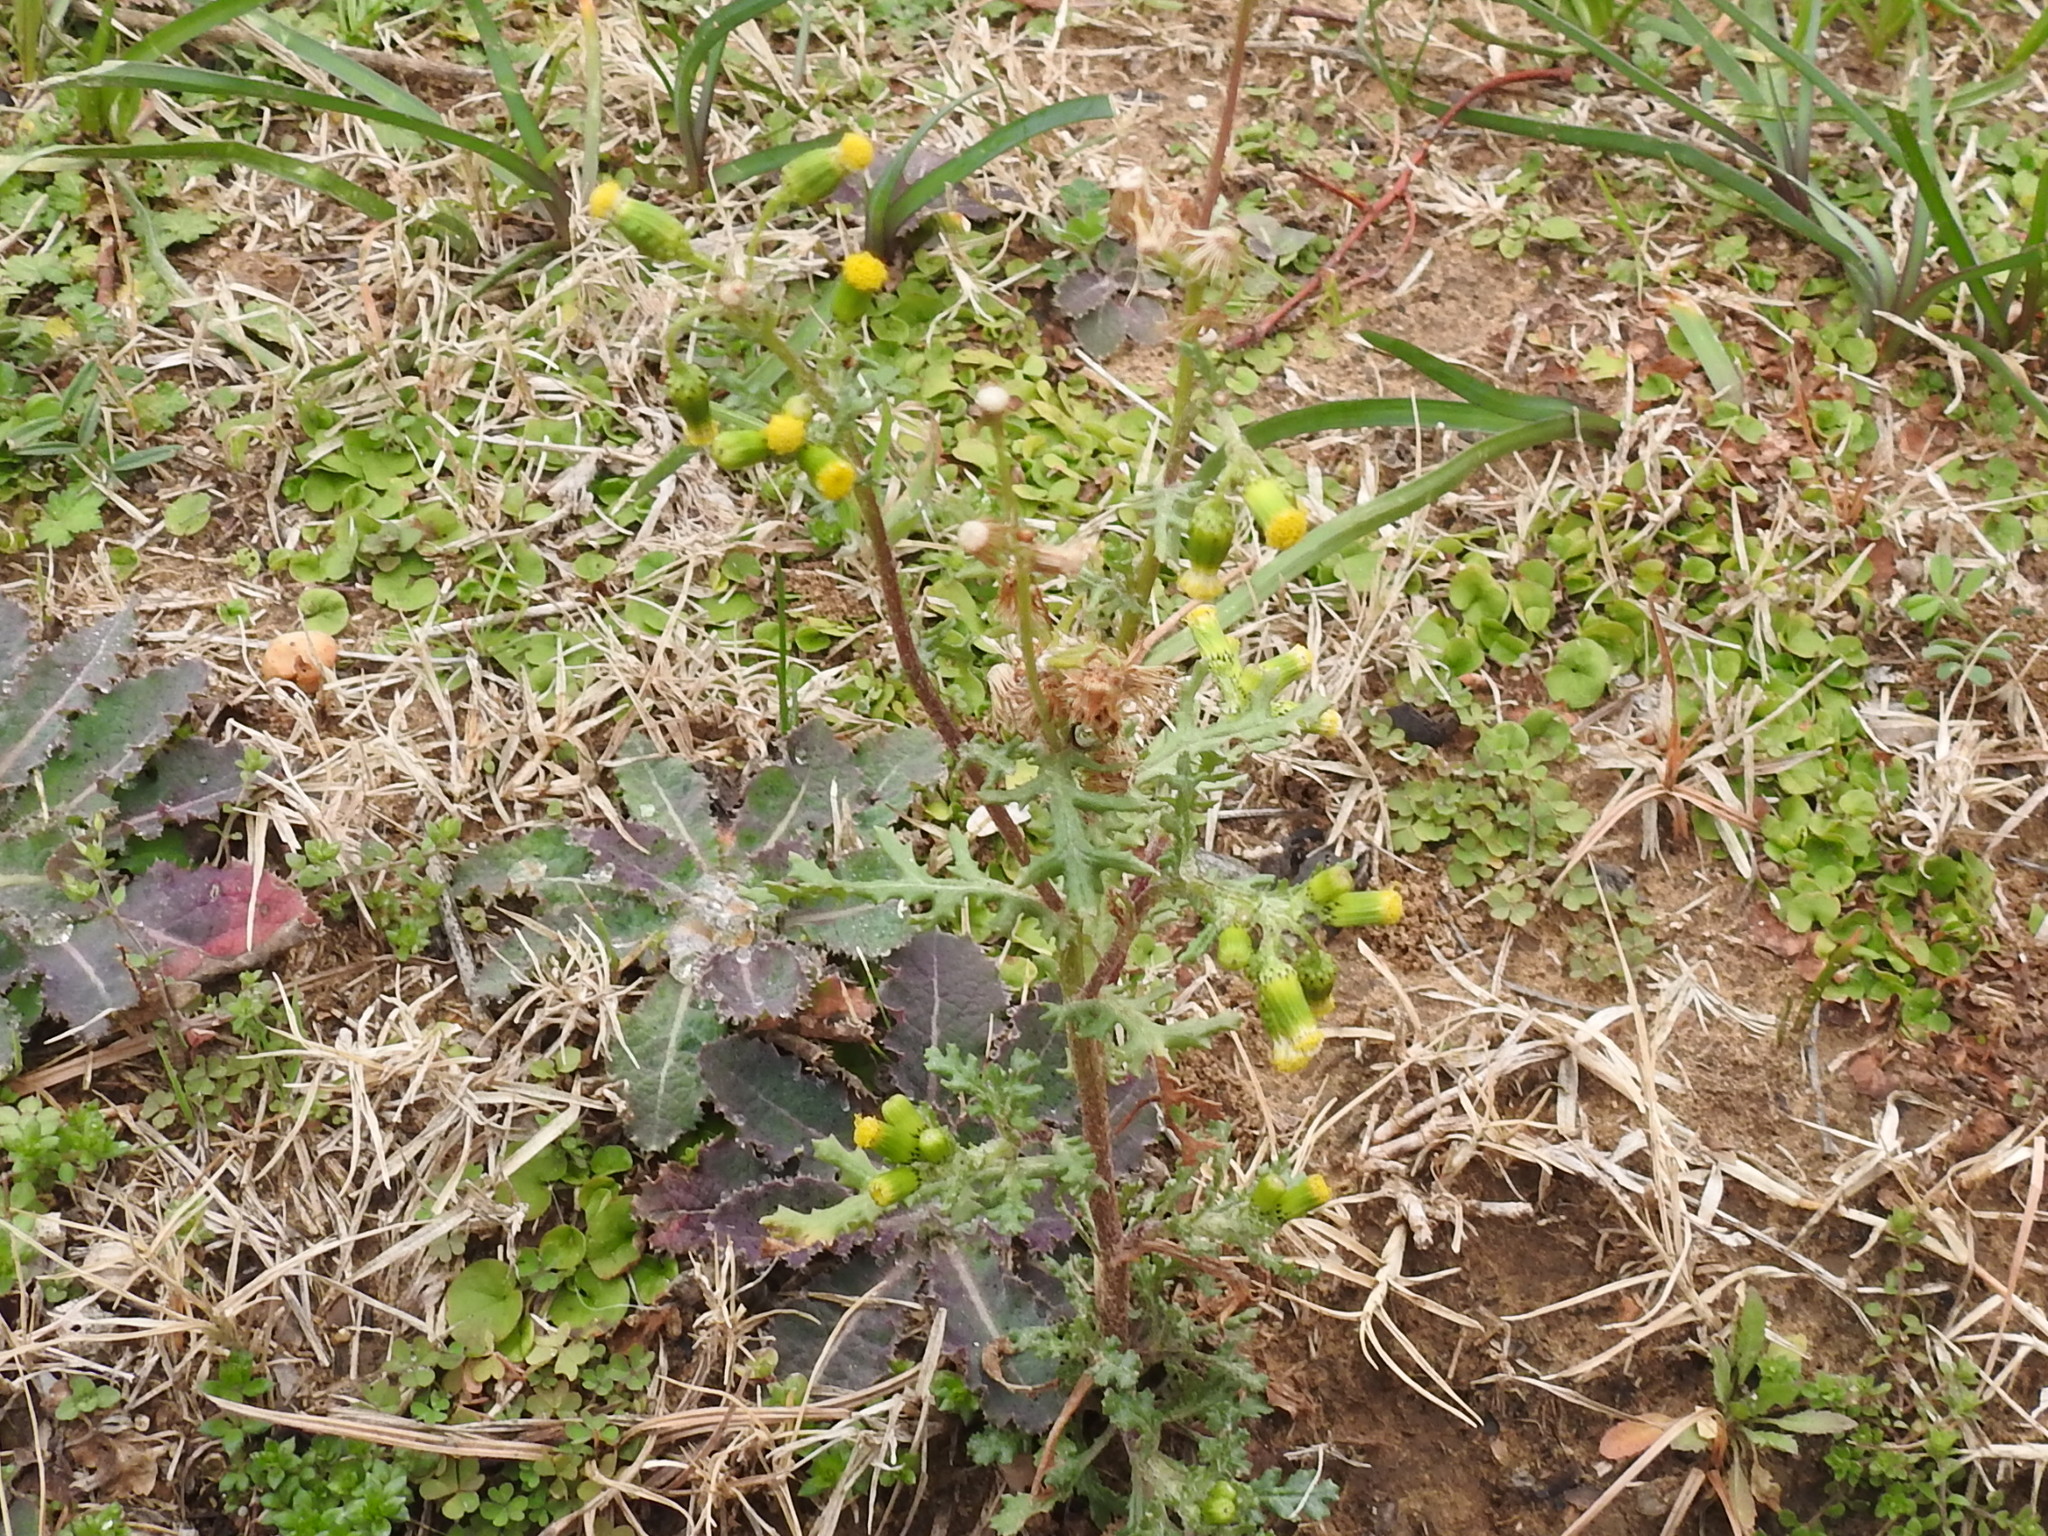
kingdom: Plantae
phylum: Tracheophyta
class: Magnoliopsida
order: Asterales
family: Asteraceae
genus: Senecio
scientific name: Senecio vulgaris
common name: Old-man-in-the-spring
